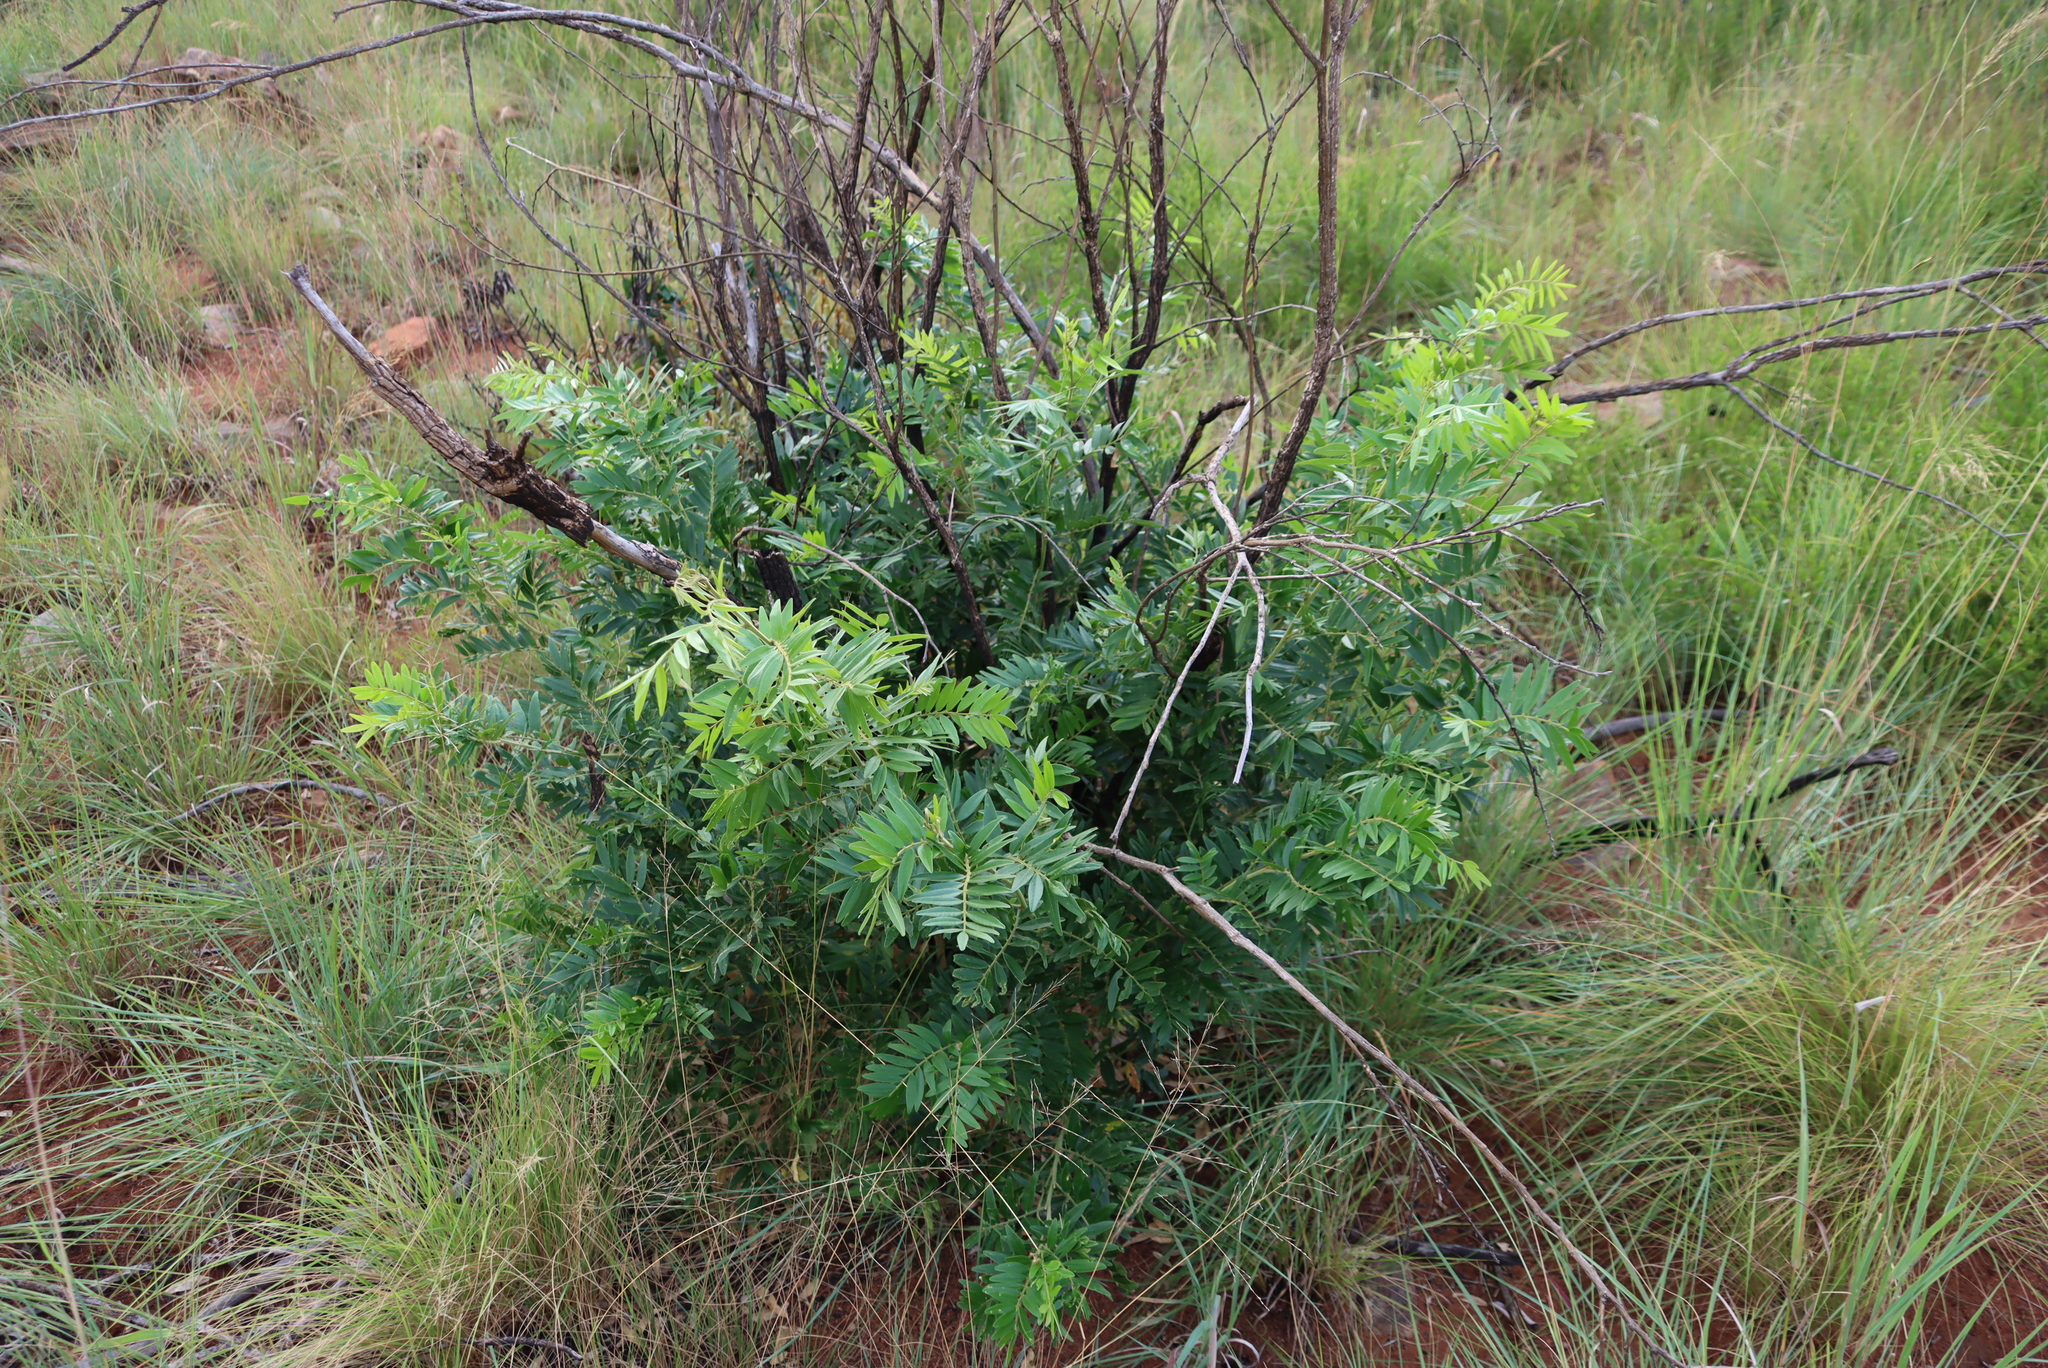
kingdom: Plantae
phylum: Tracheophyta
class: Magnoliopsida
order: Fabales
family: Fabaceae
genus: Mundulea
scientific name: Mundulea sericea
